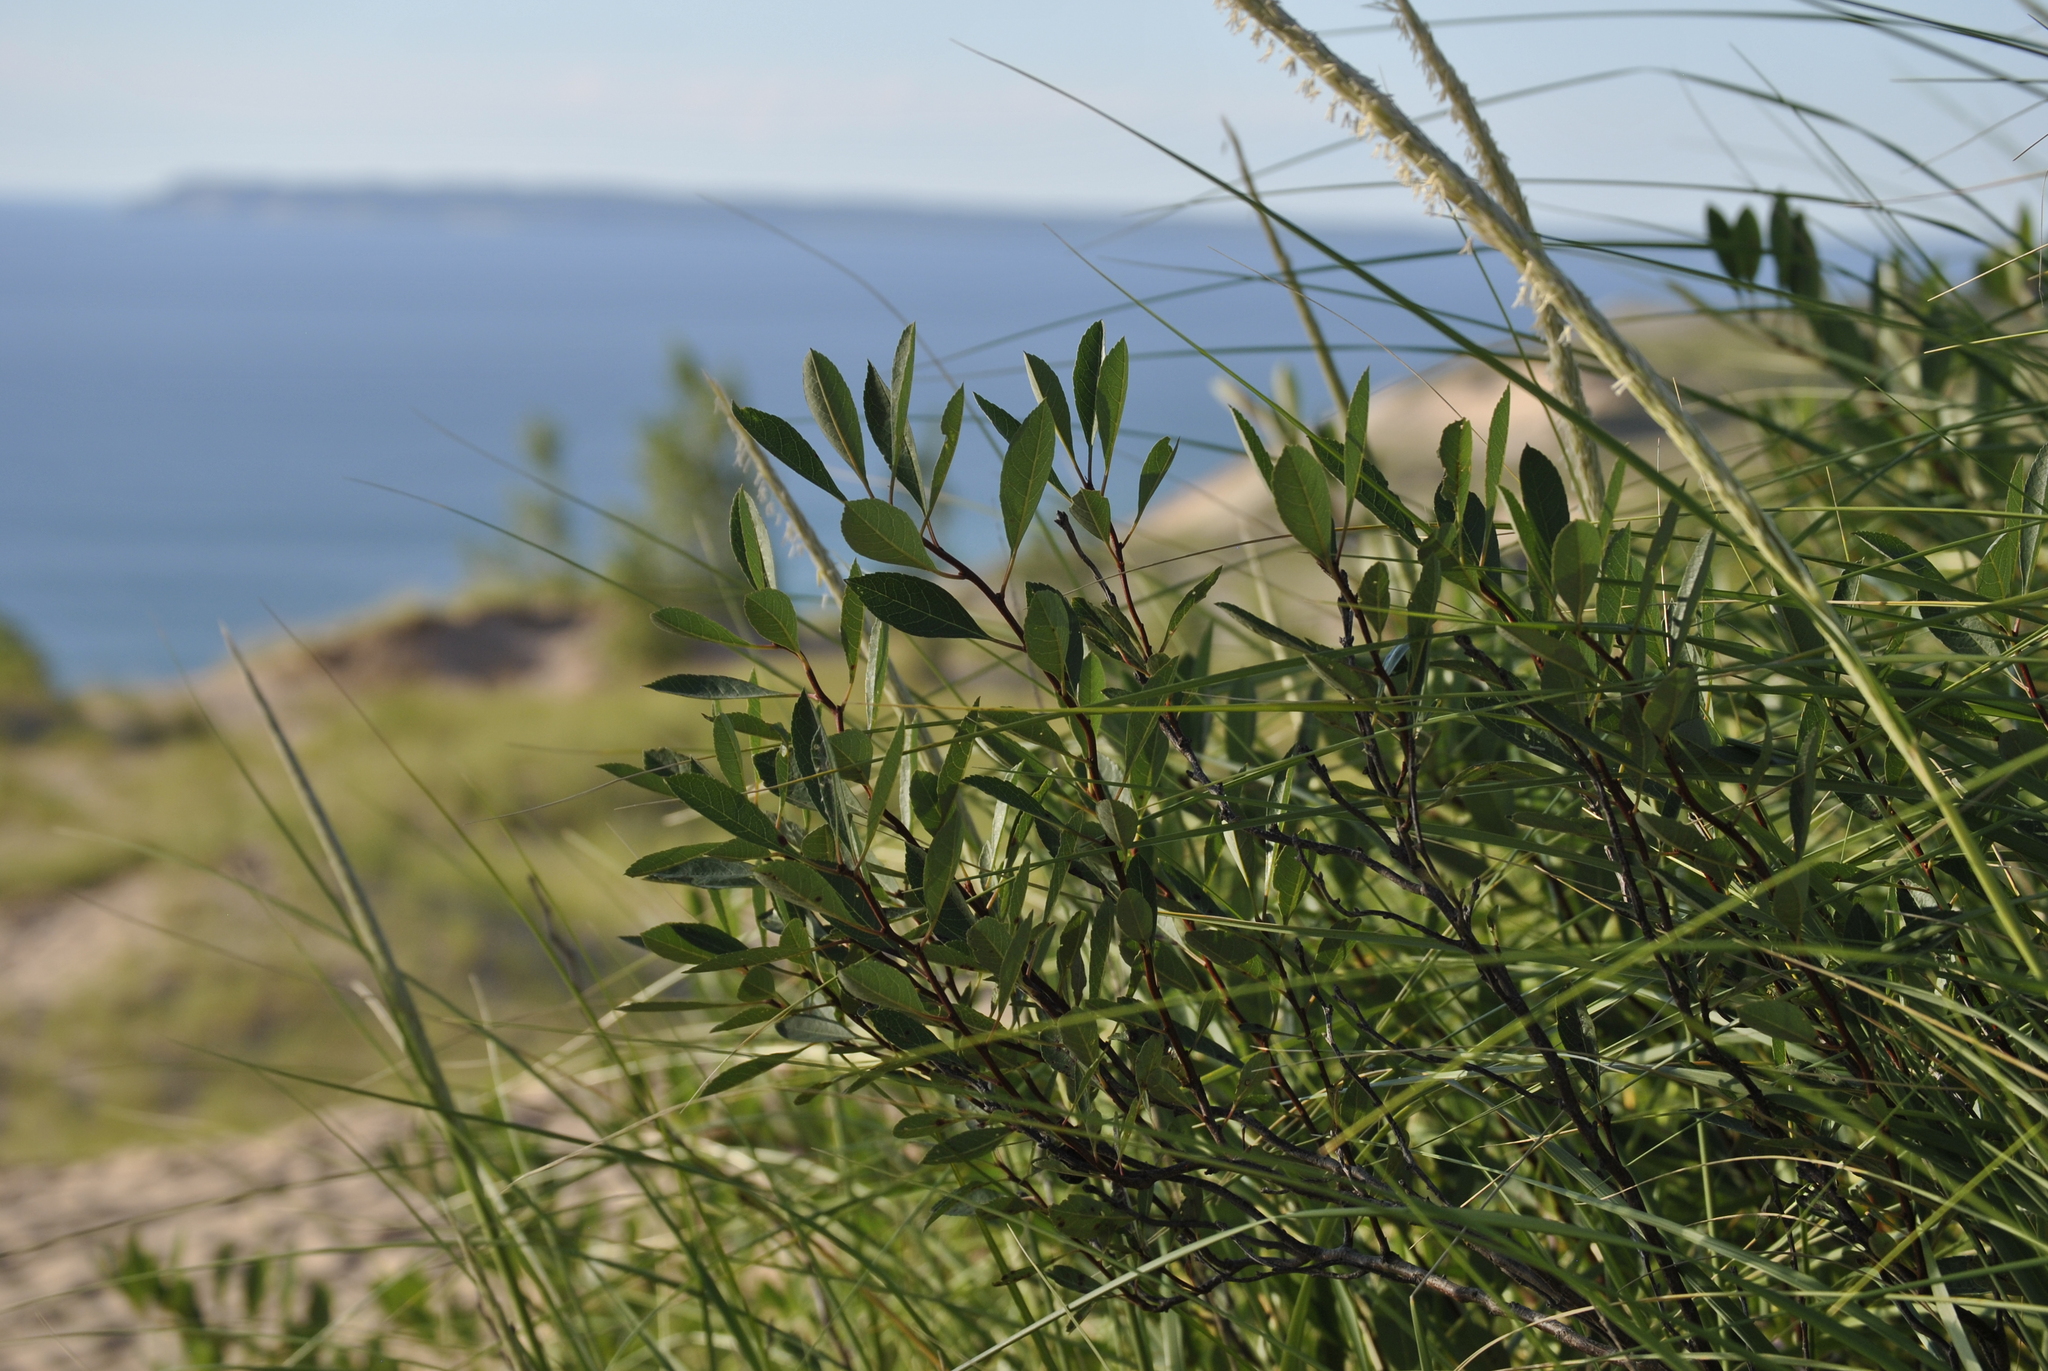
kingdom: Plantae
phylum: Tracheophyta
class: Magnoliopsida
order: Rosales
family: Rosaceae
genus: Prunus
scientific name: Prunus pumila
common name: Dwarf cherry
